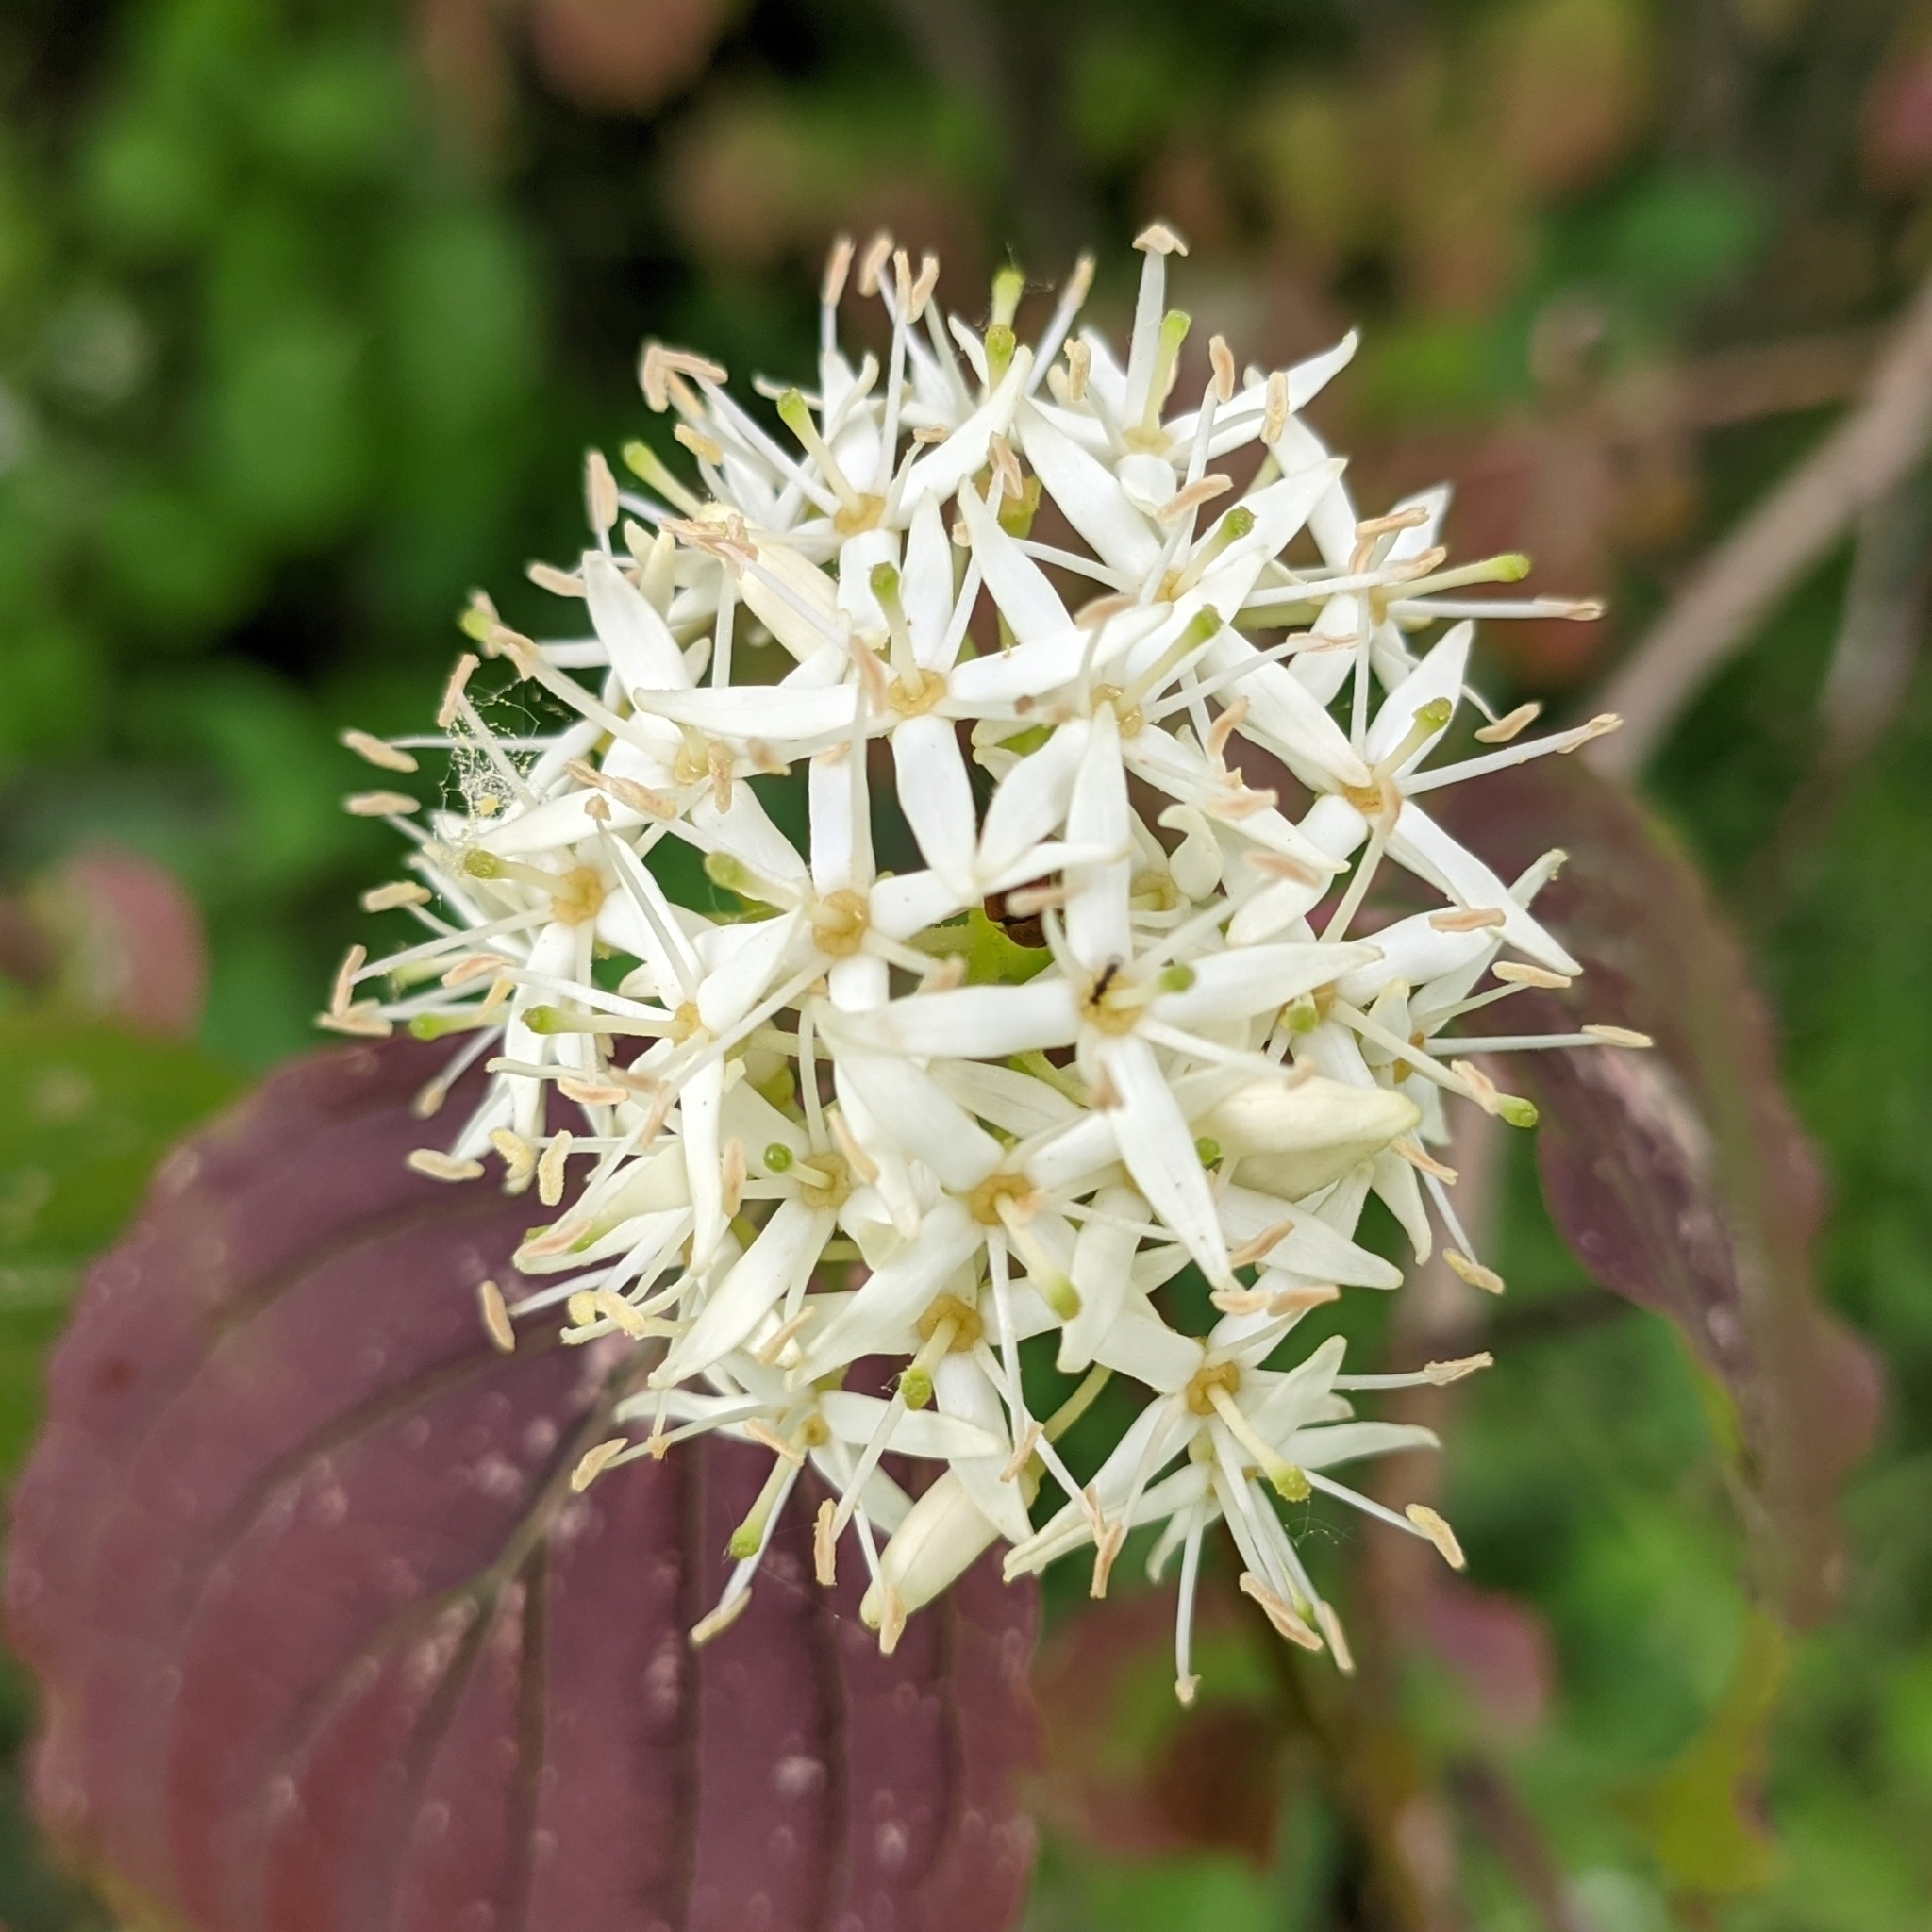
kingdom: Plantae
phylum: Tracheophyta
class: Magnoliopsida
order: Cornales
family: Cornaceae
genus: Cornus
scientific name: Cornus sanguinea
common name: Dogwood
